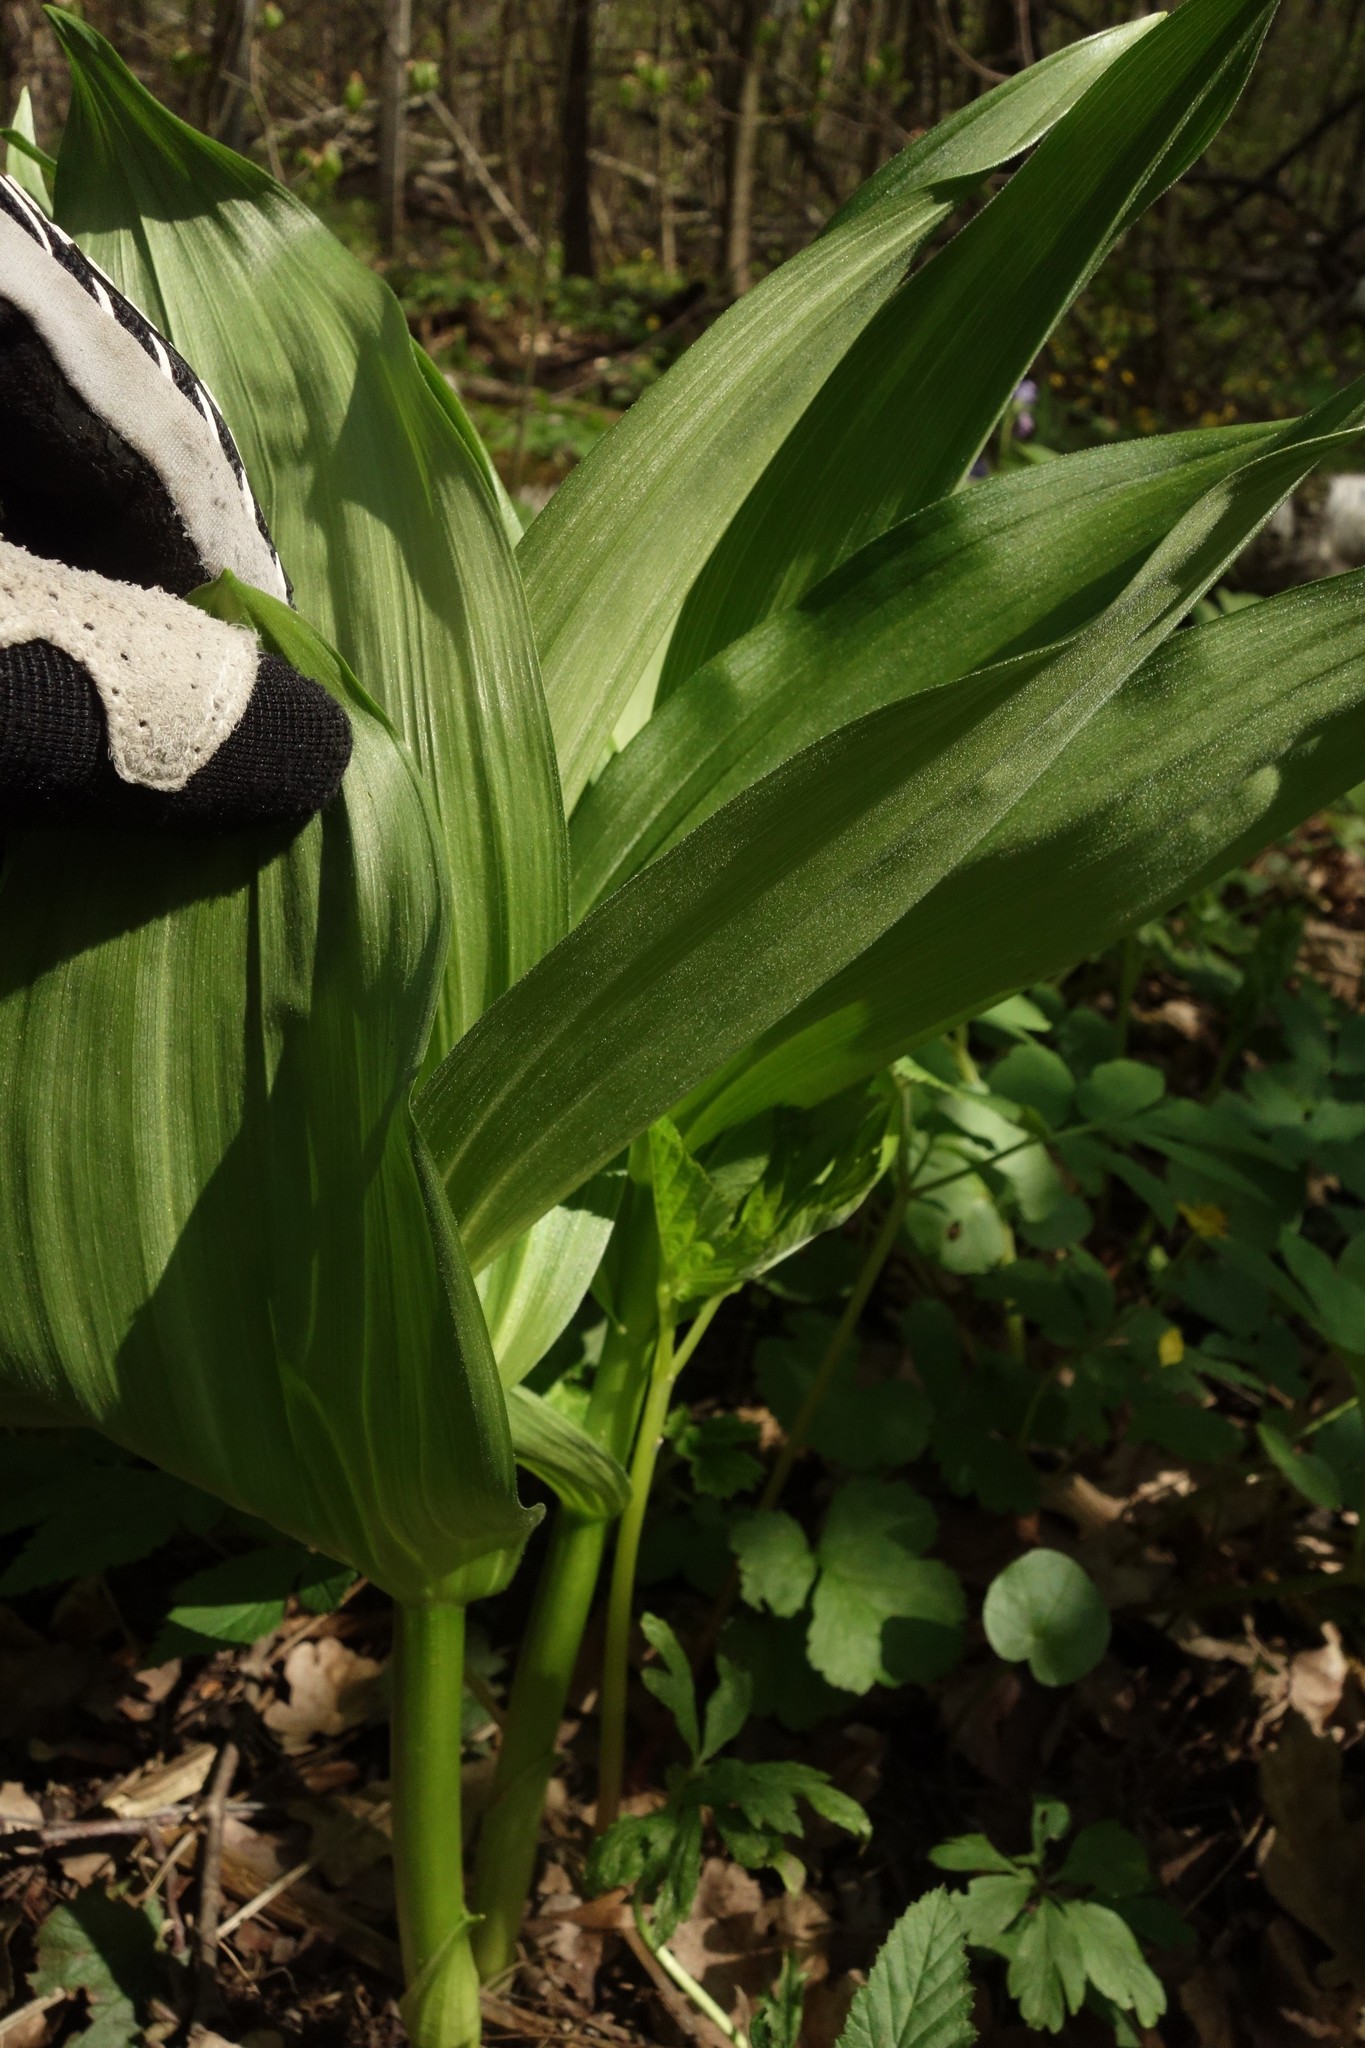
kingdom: Plantae
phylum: Tracheophyta
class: Liliopsida
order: Liliales
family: Melanthiaceae
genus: Veratrum
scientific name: Veratrum lobelianum
